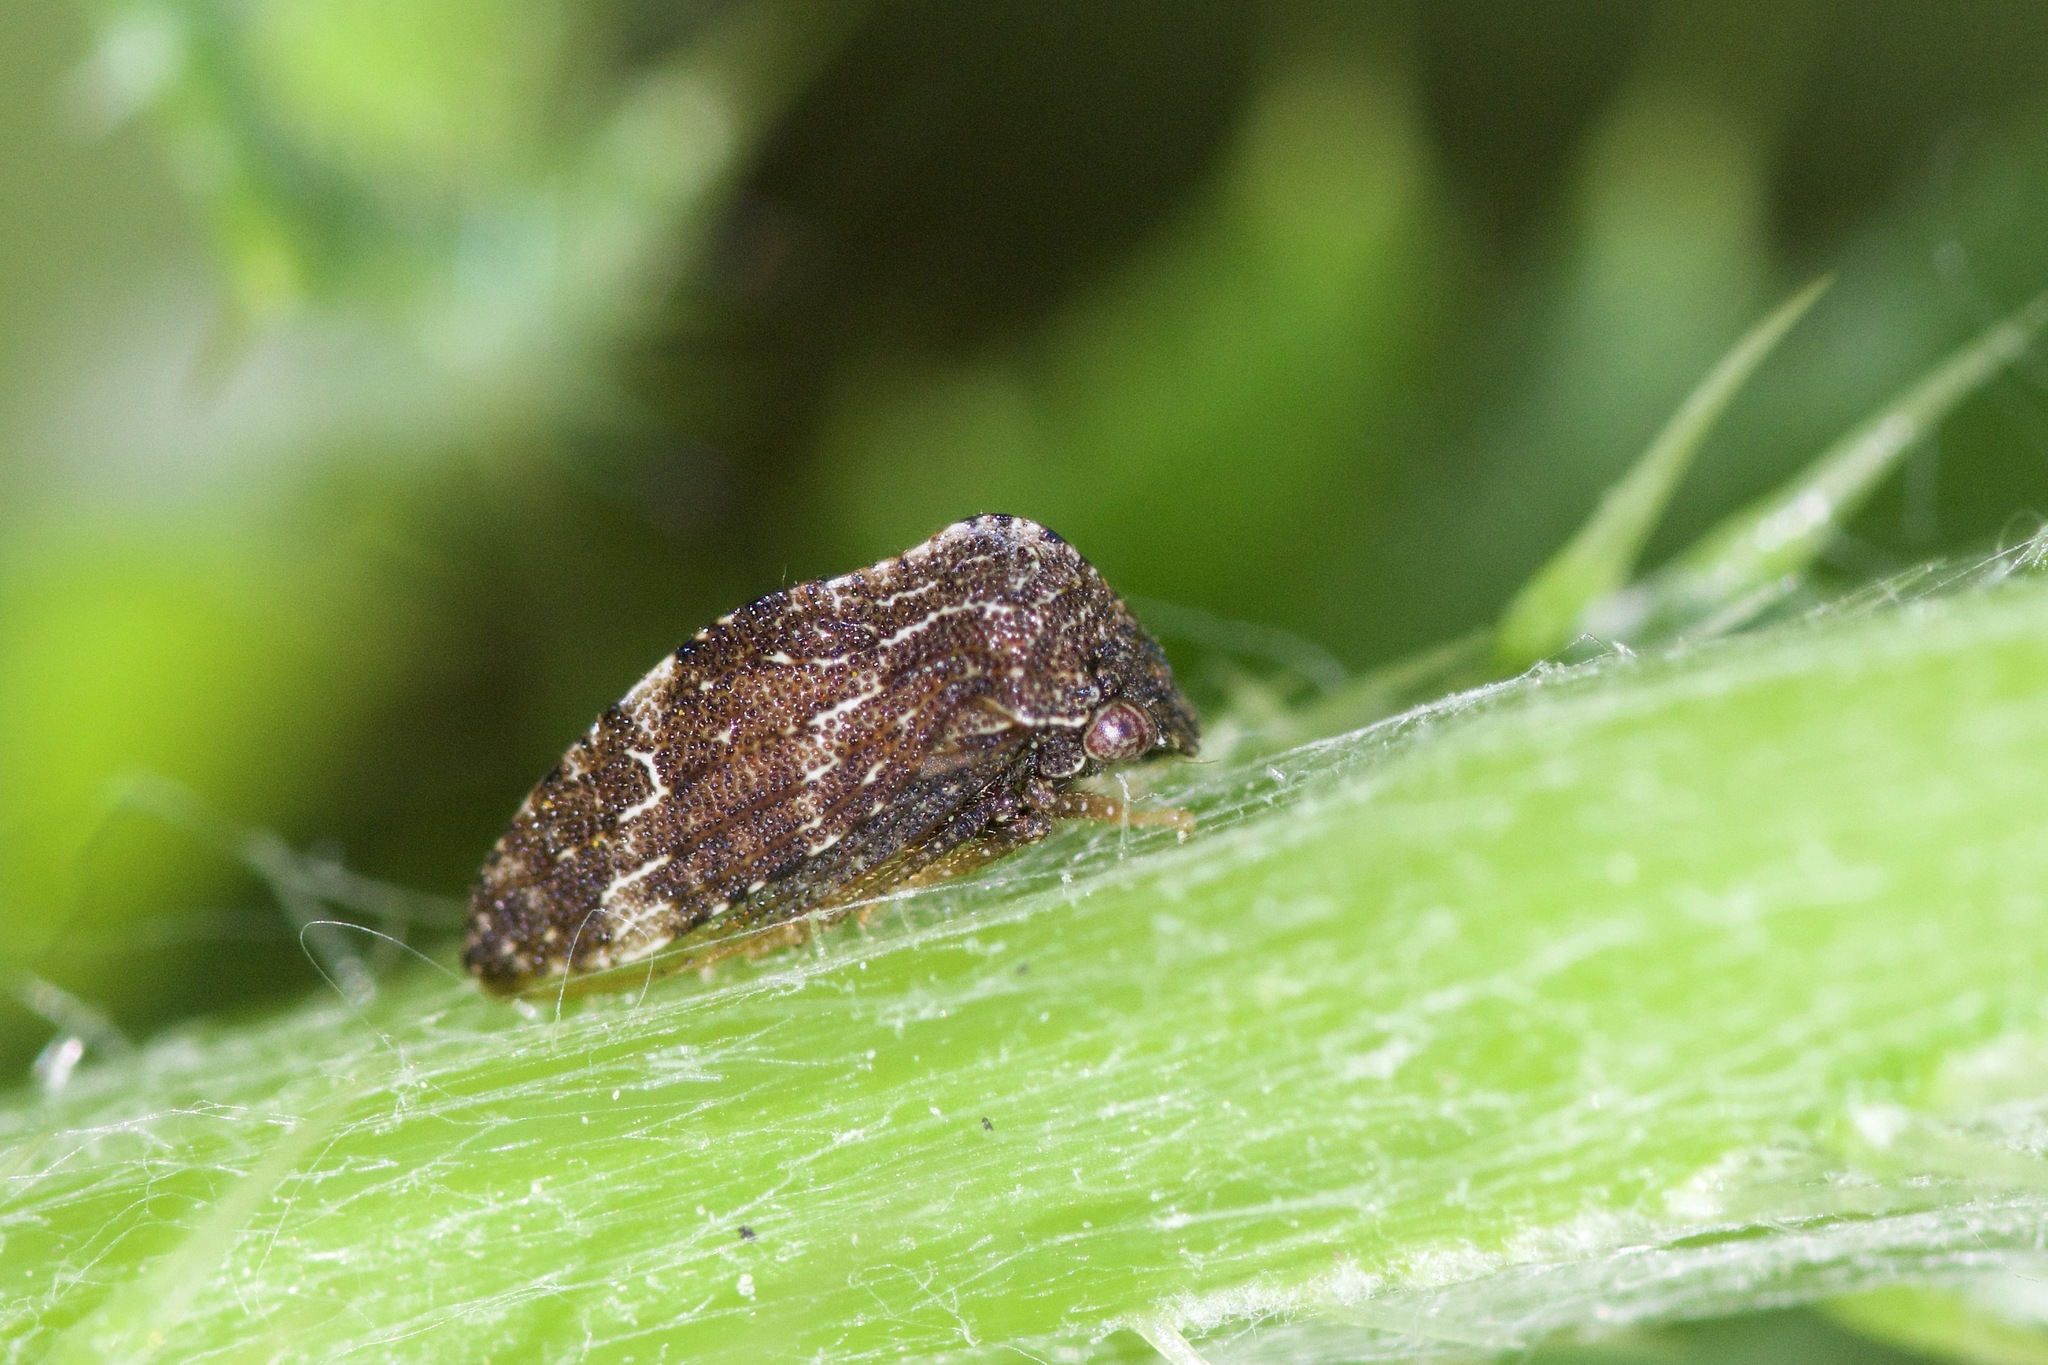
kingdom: Animalia
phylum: Arthropoda
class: Insecta
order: Hemiptera
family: Membracidae
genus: Publilia
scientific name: Publilia concava
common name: Aster treehopper
